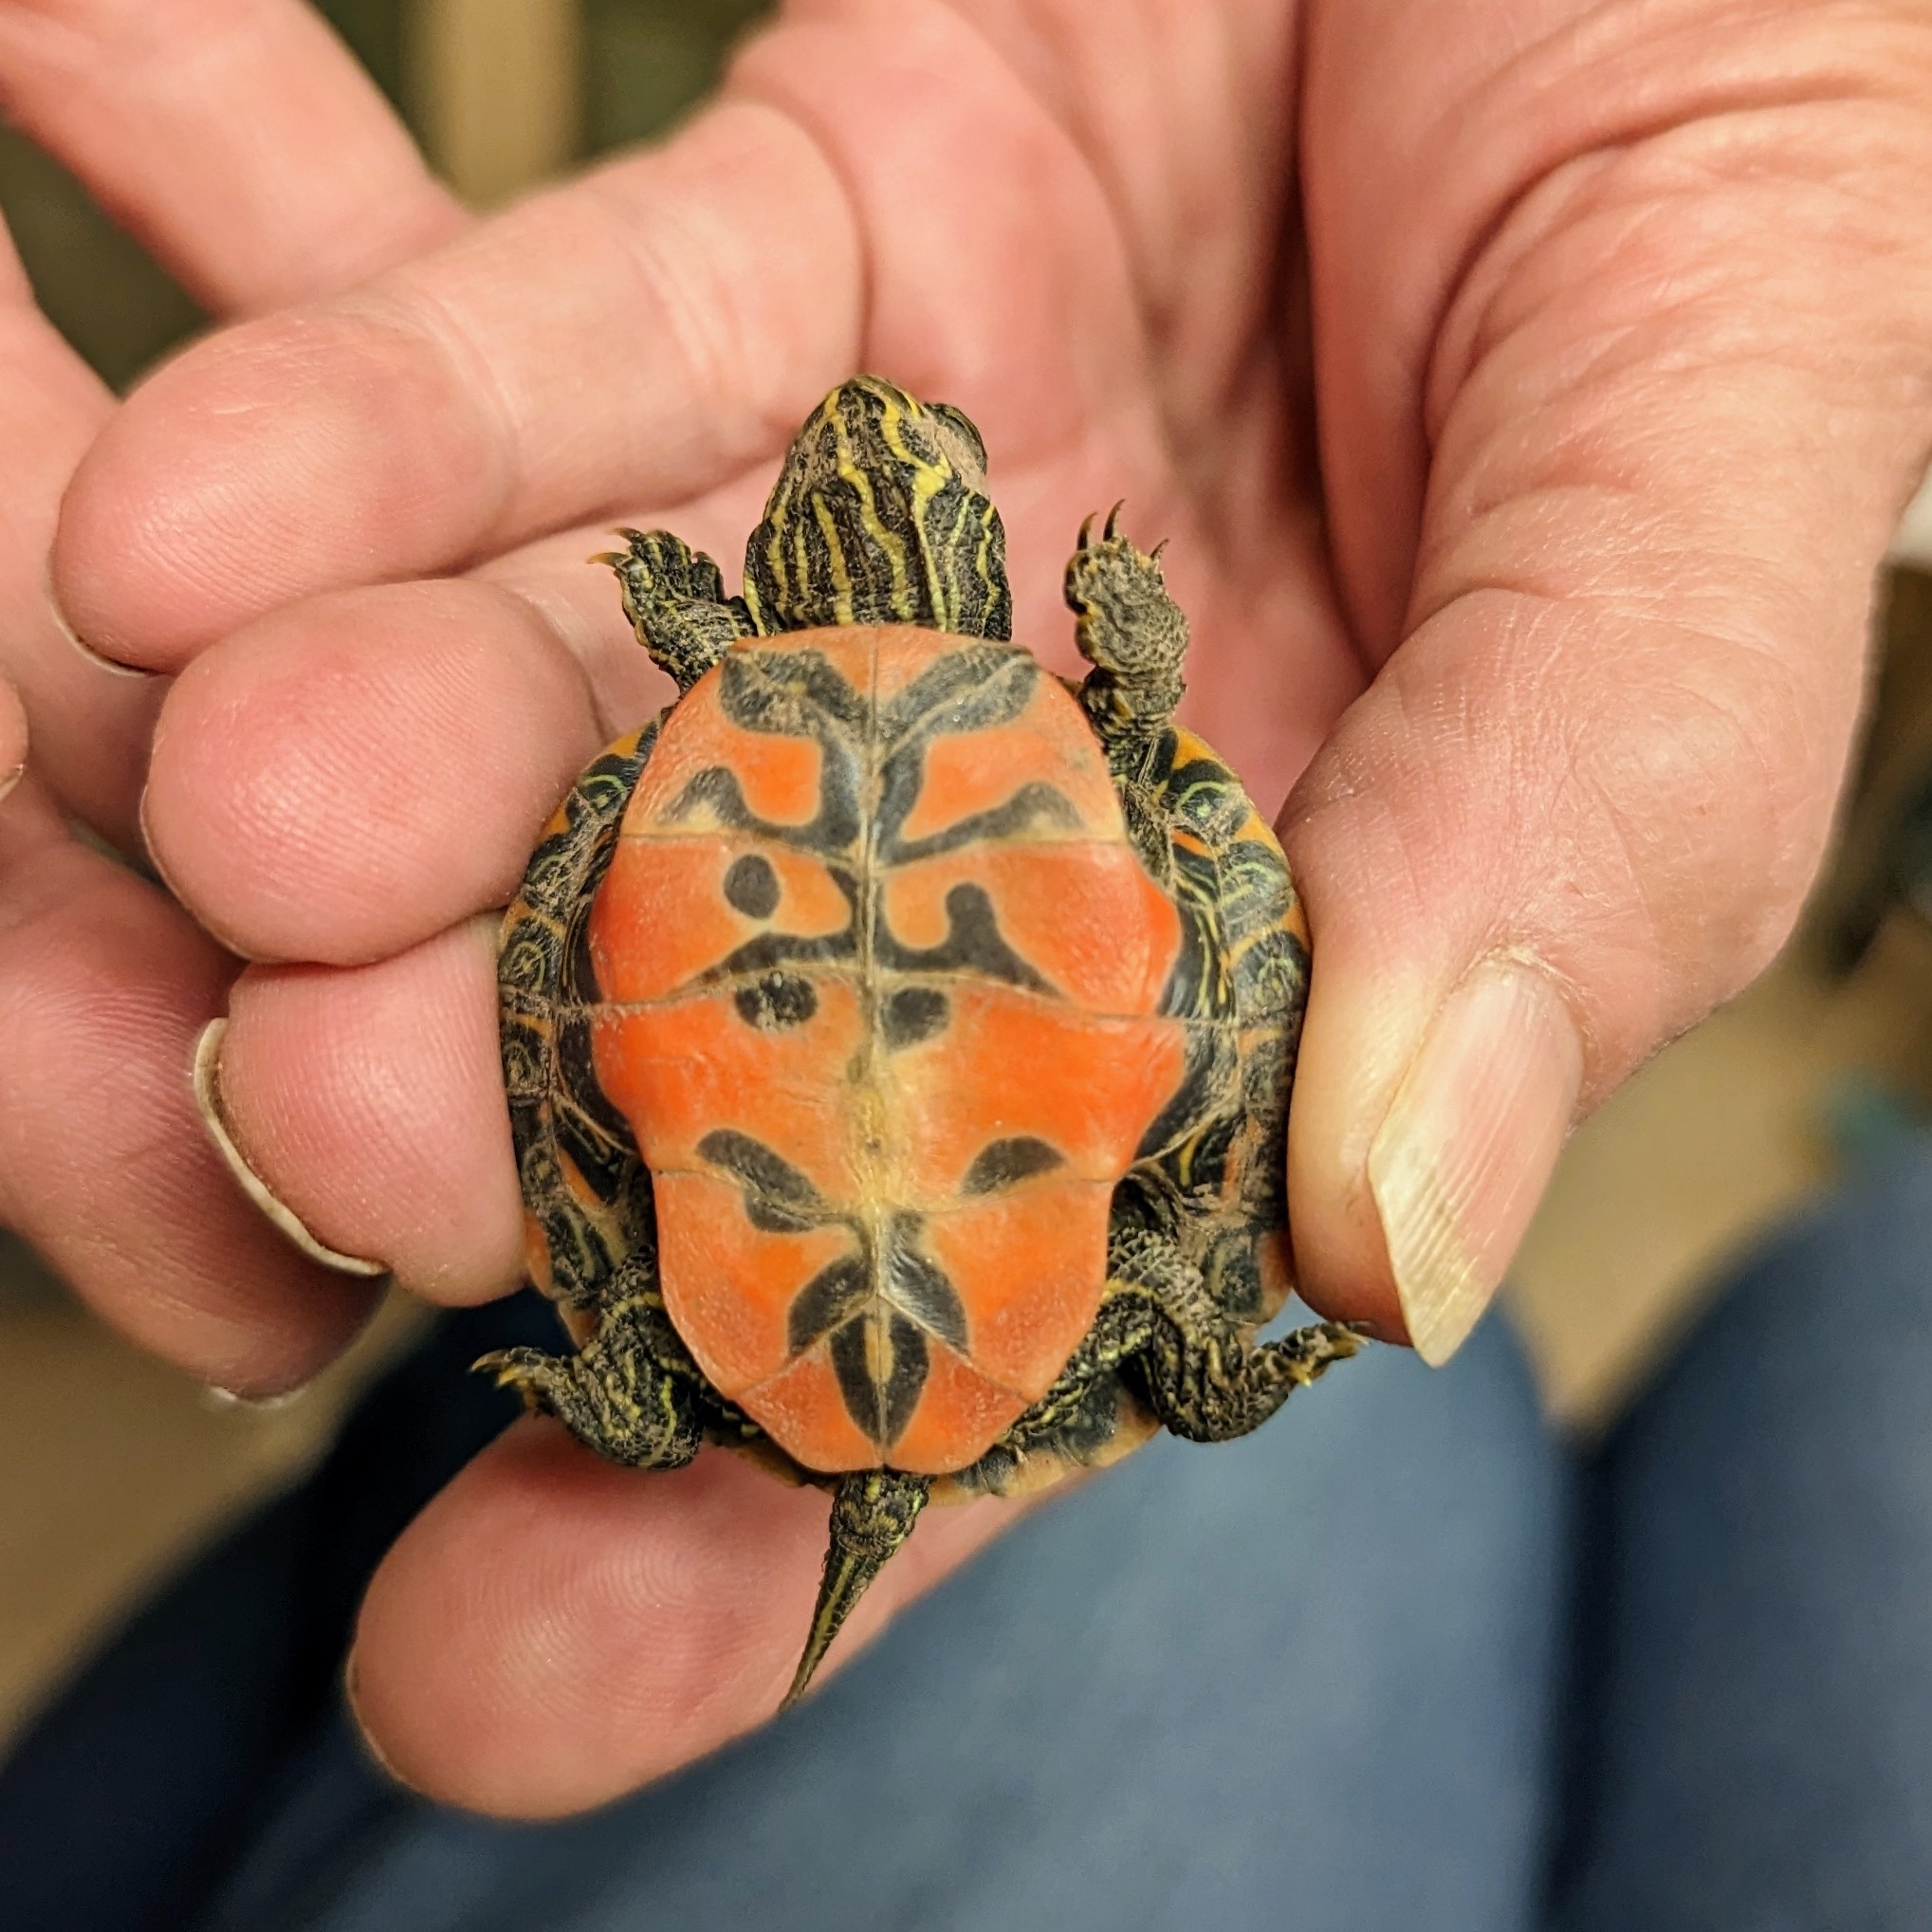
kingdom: Animalia
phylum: Chordata
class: Testudines
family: Emydidae
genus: Pseudemys
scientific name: Pseudemys rubriventris
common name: American red-bellied turtle
